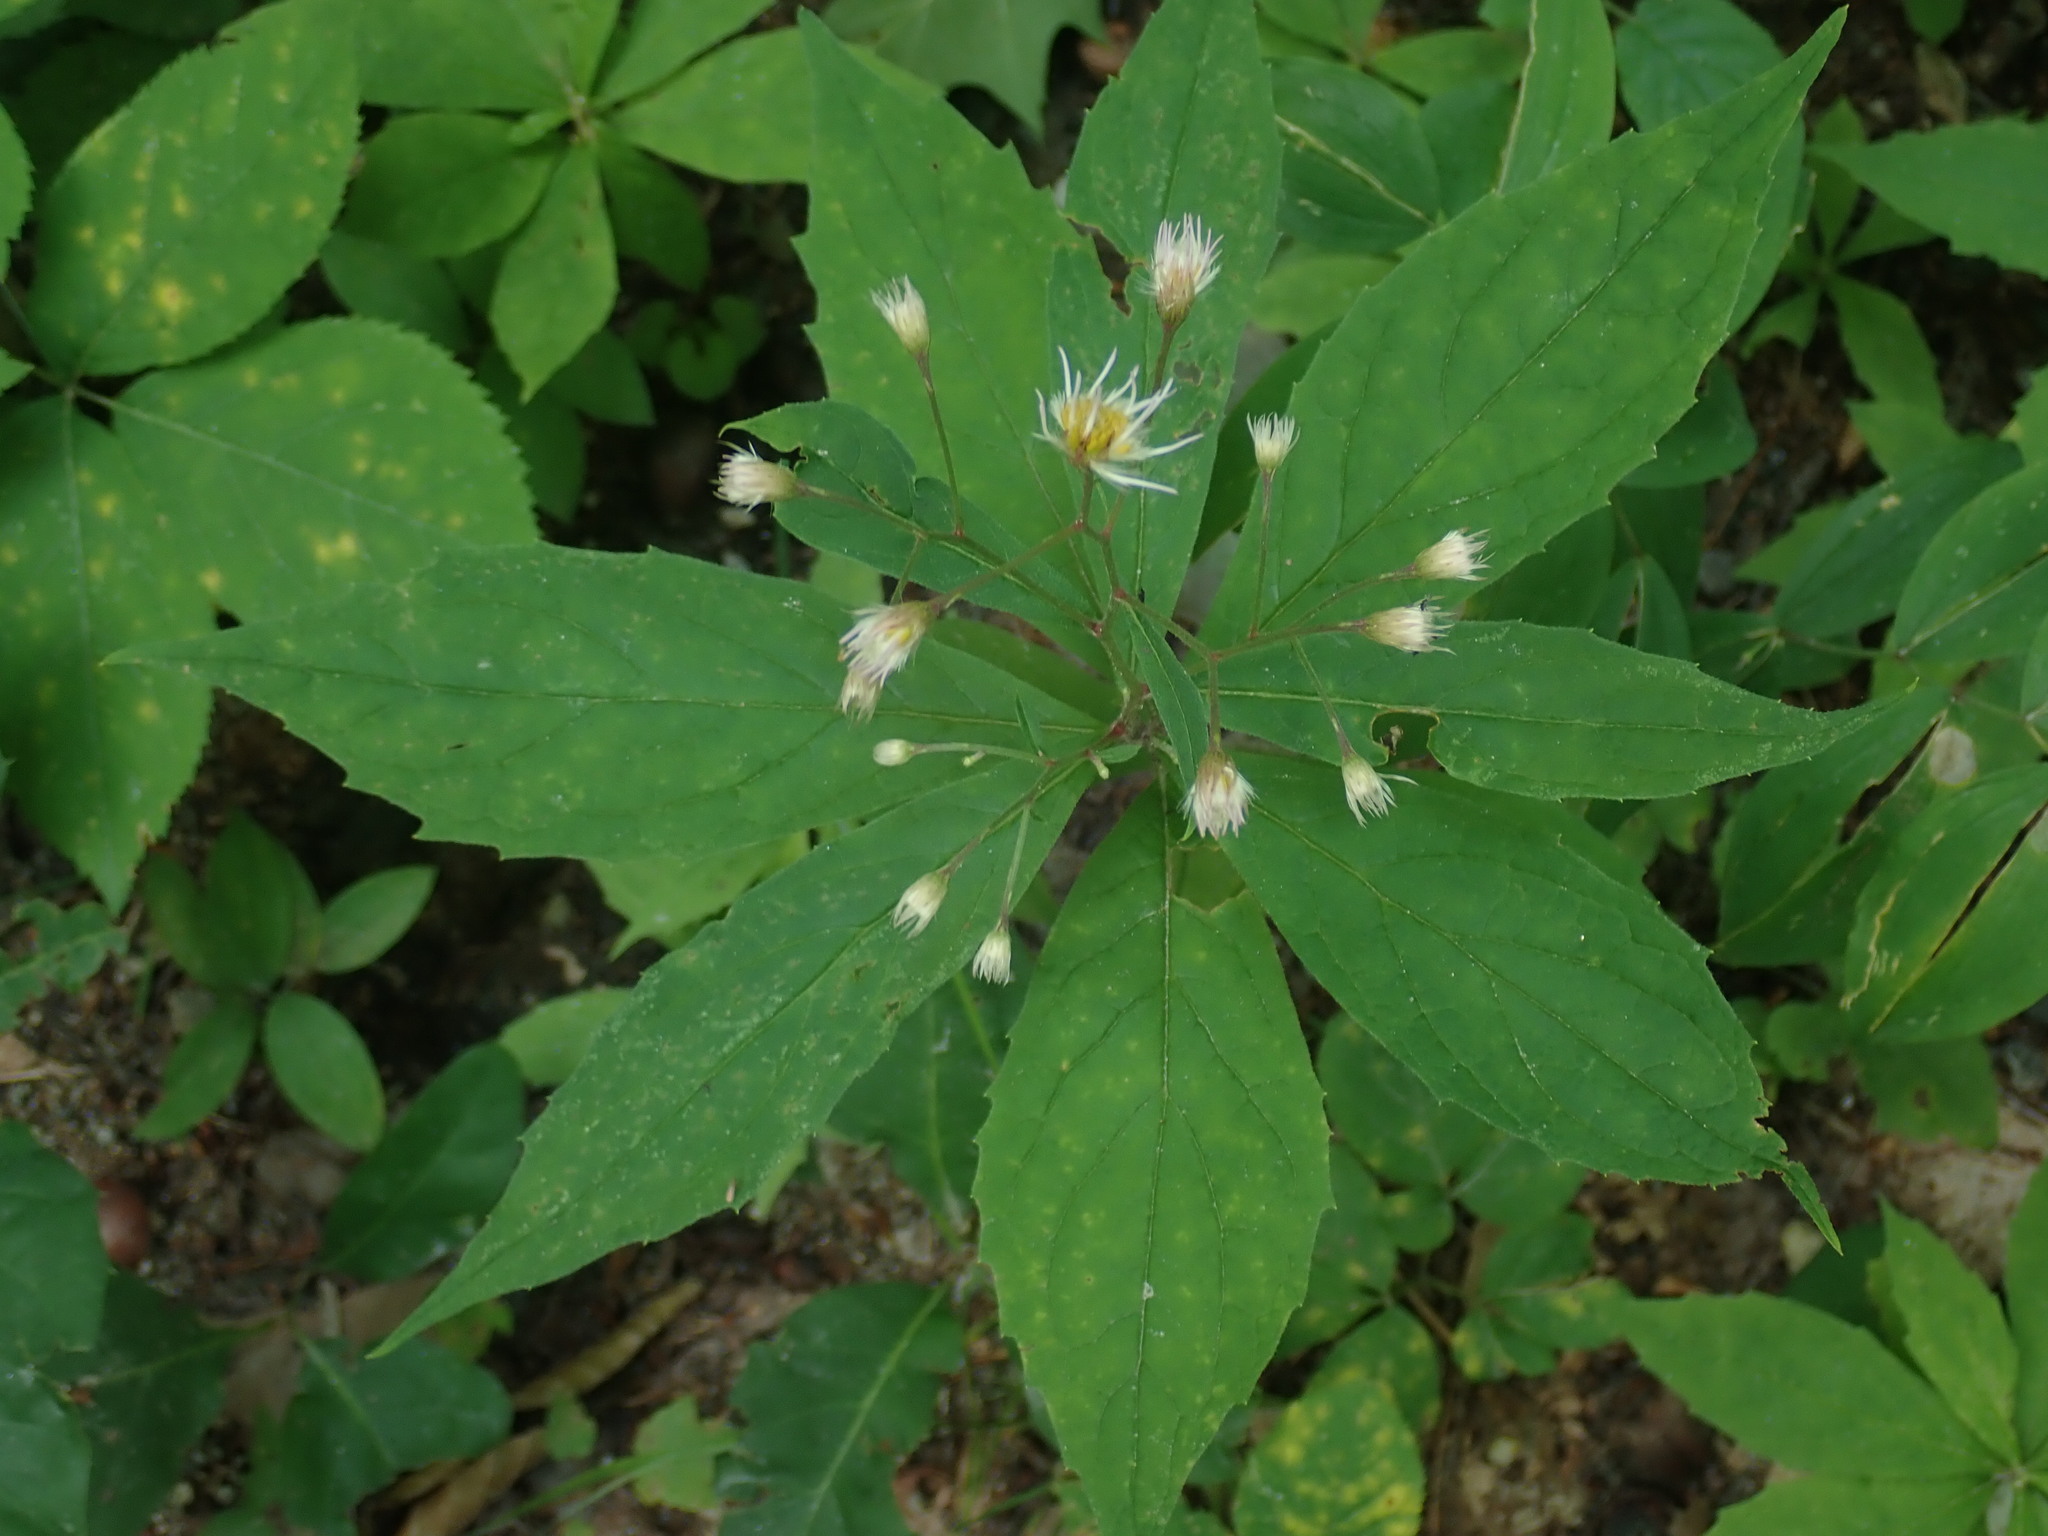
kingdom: Plantae
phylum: Tracheophyta
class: Magnoliopsida
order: Asterales
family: Asteraceae
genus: Oclemena
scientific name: Oclemena acuminata
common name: Mountain aster
